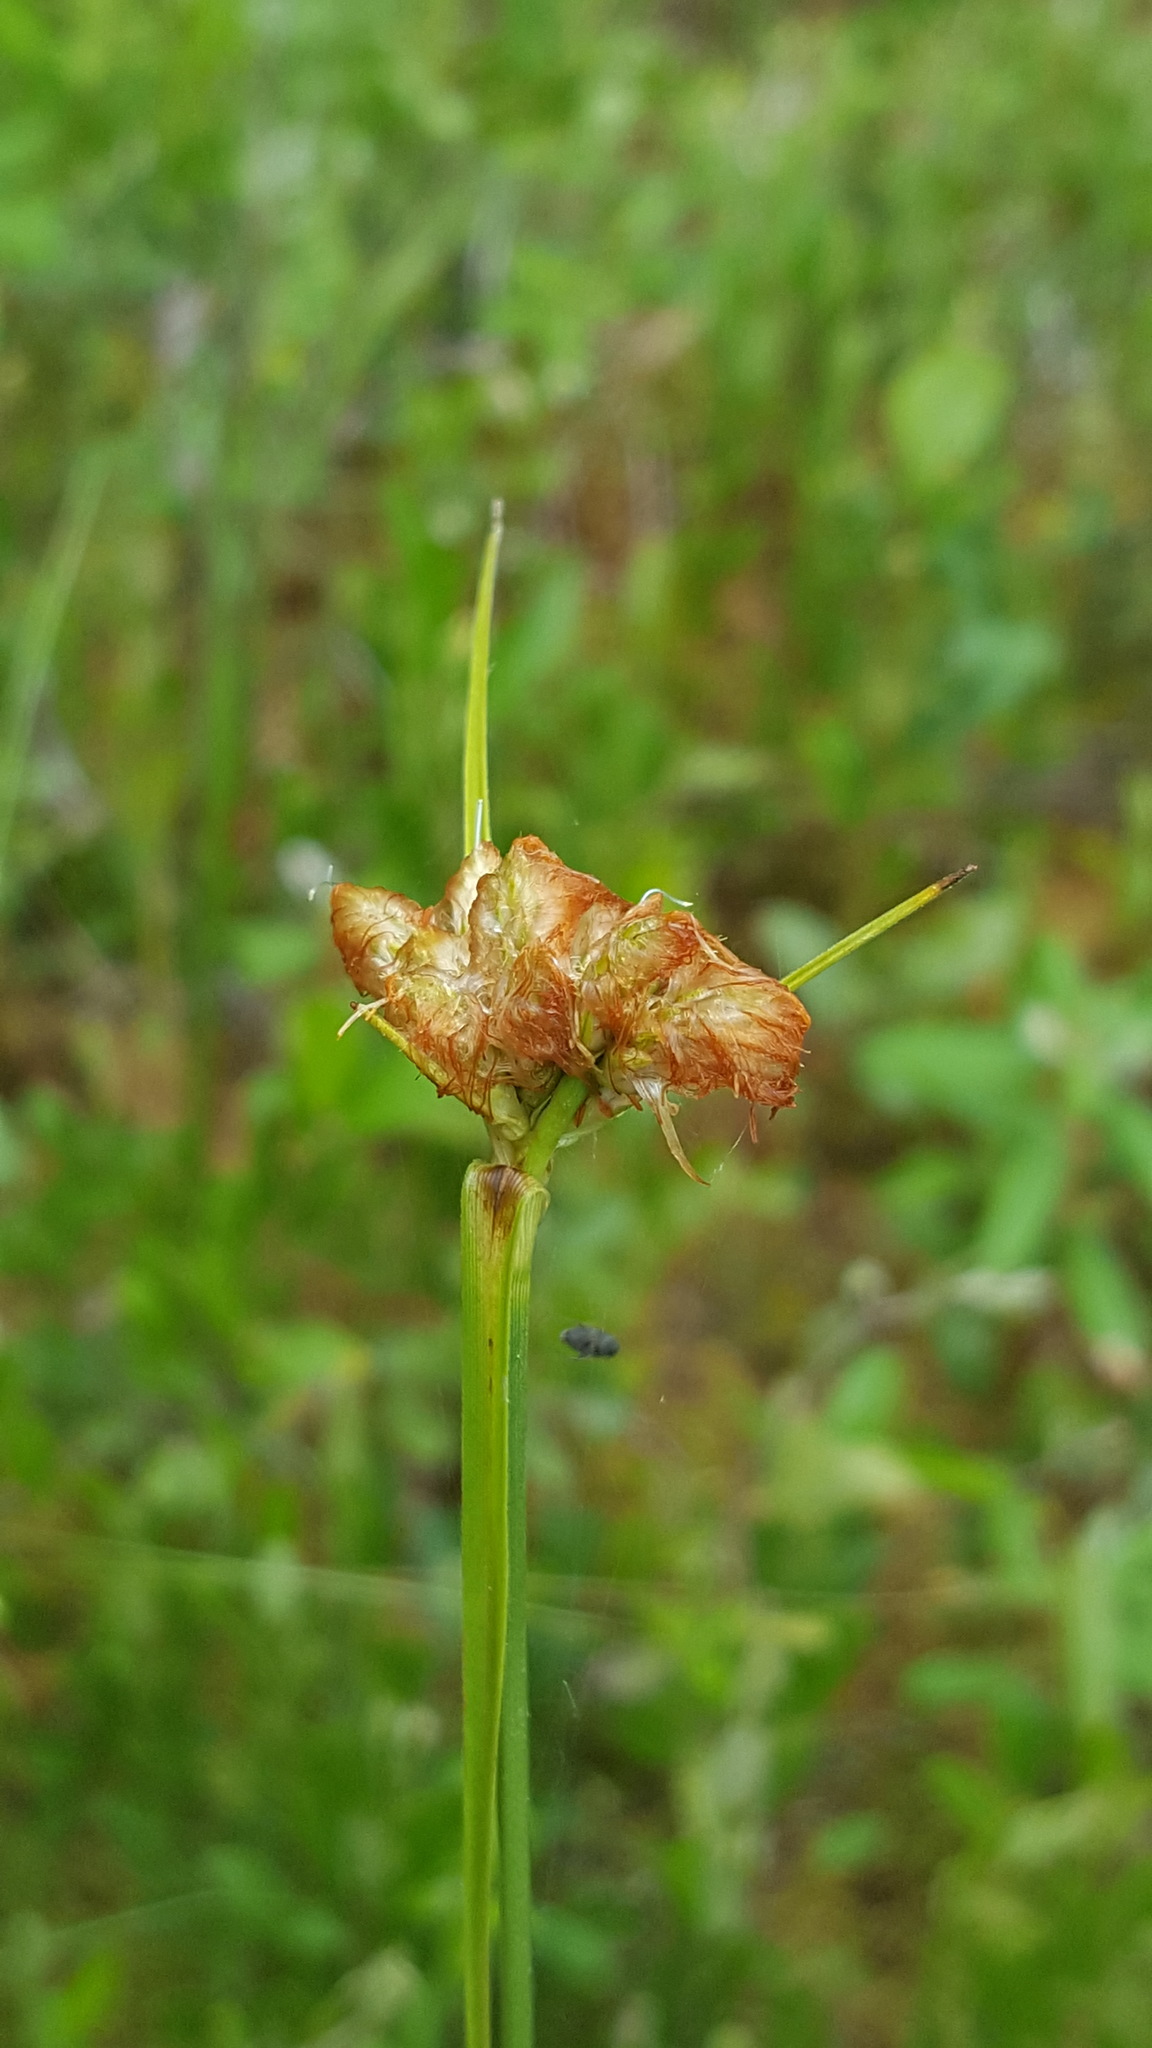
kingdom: Plantae
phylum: Tracheophyta
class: Liliopsida
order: Poales
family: Cyperaceae
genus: Eriophorum
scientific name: Eriophorum virginicum
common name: Tawny cottongrass
